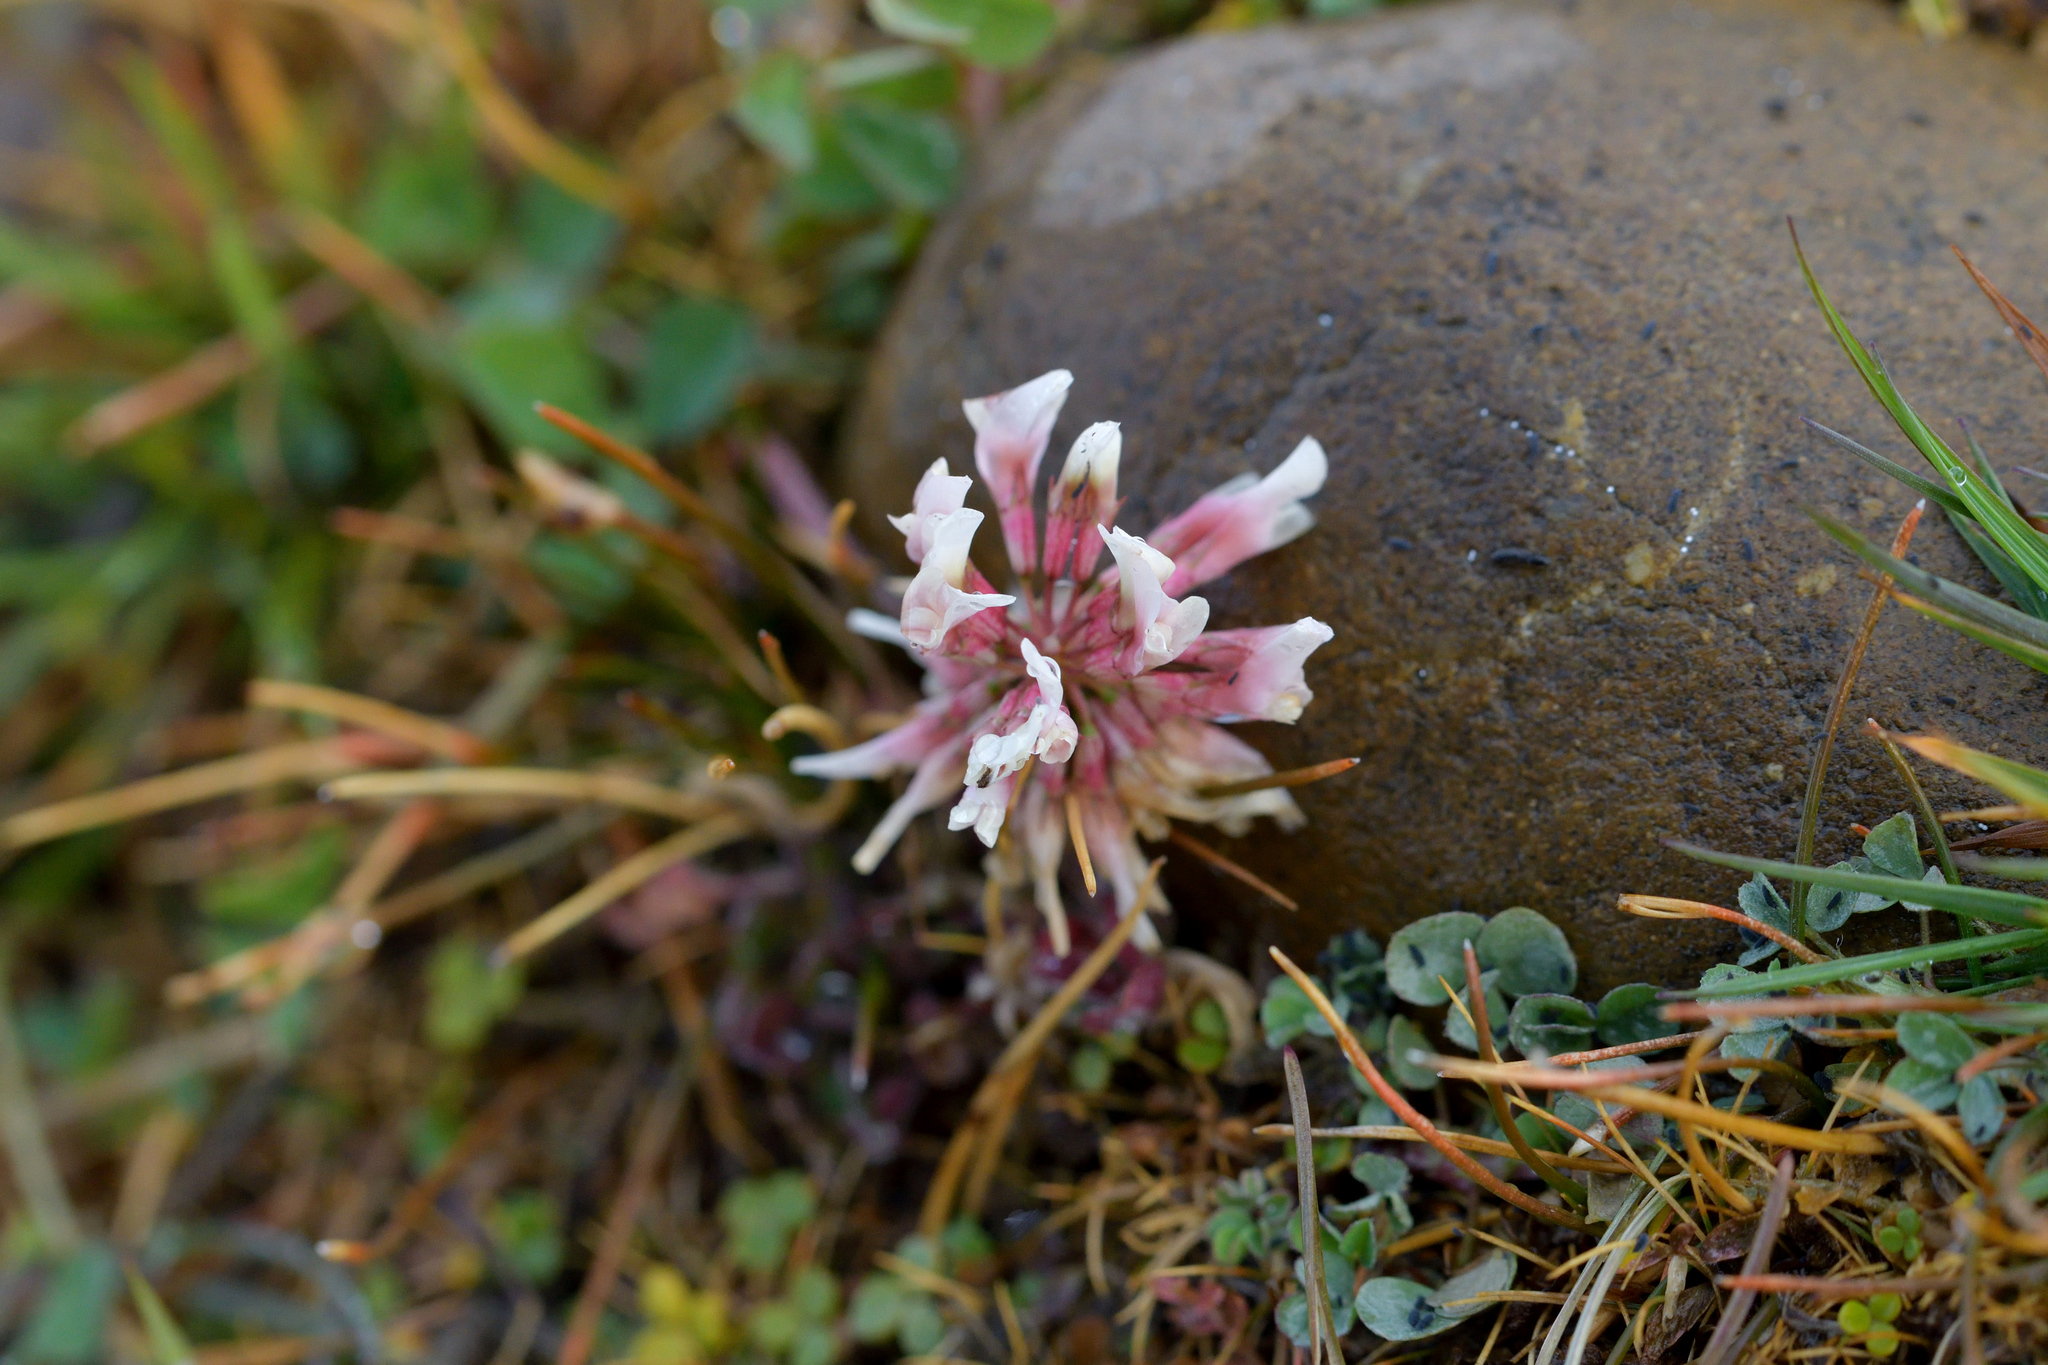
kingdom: Plantae
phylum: Tracheophyta
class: Magnoliopsida
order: Fabales
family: Fabaceae
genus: Trifolium
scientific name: Trifolium repens
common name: White clover
